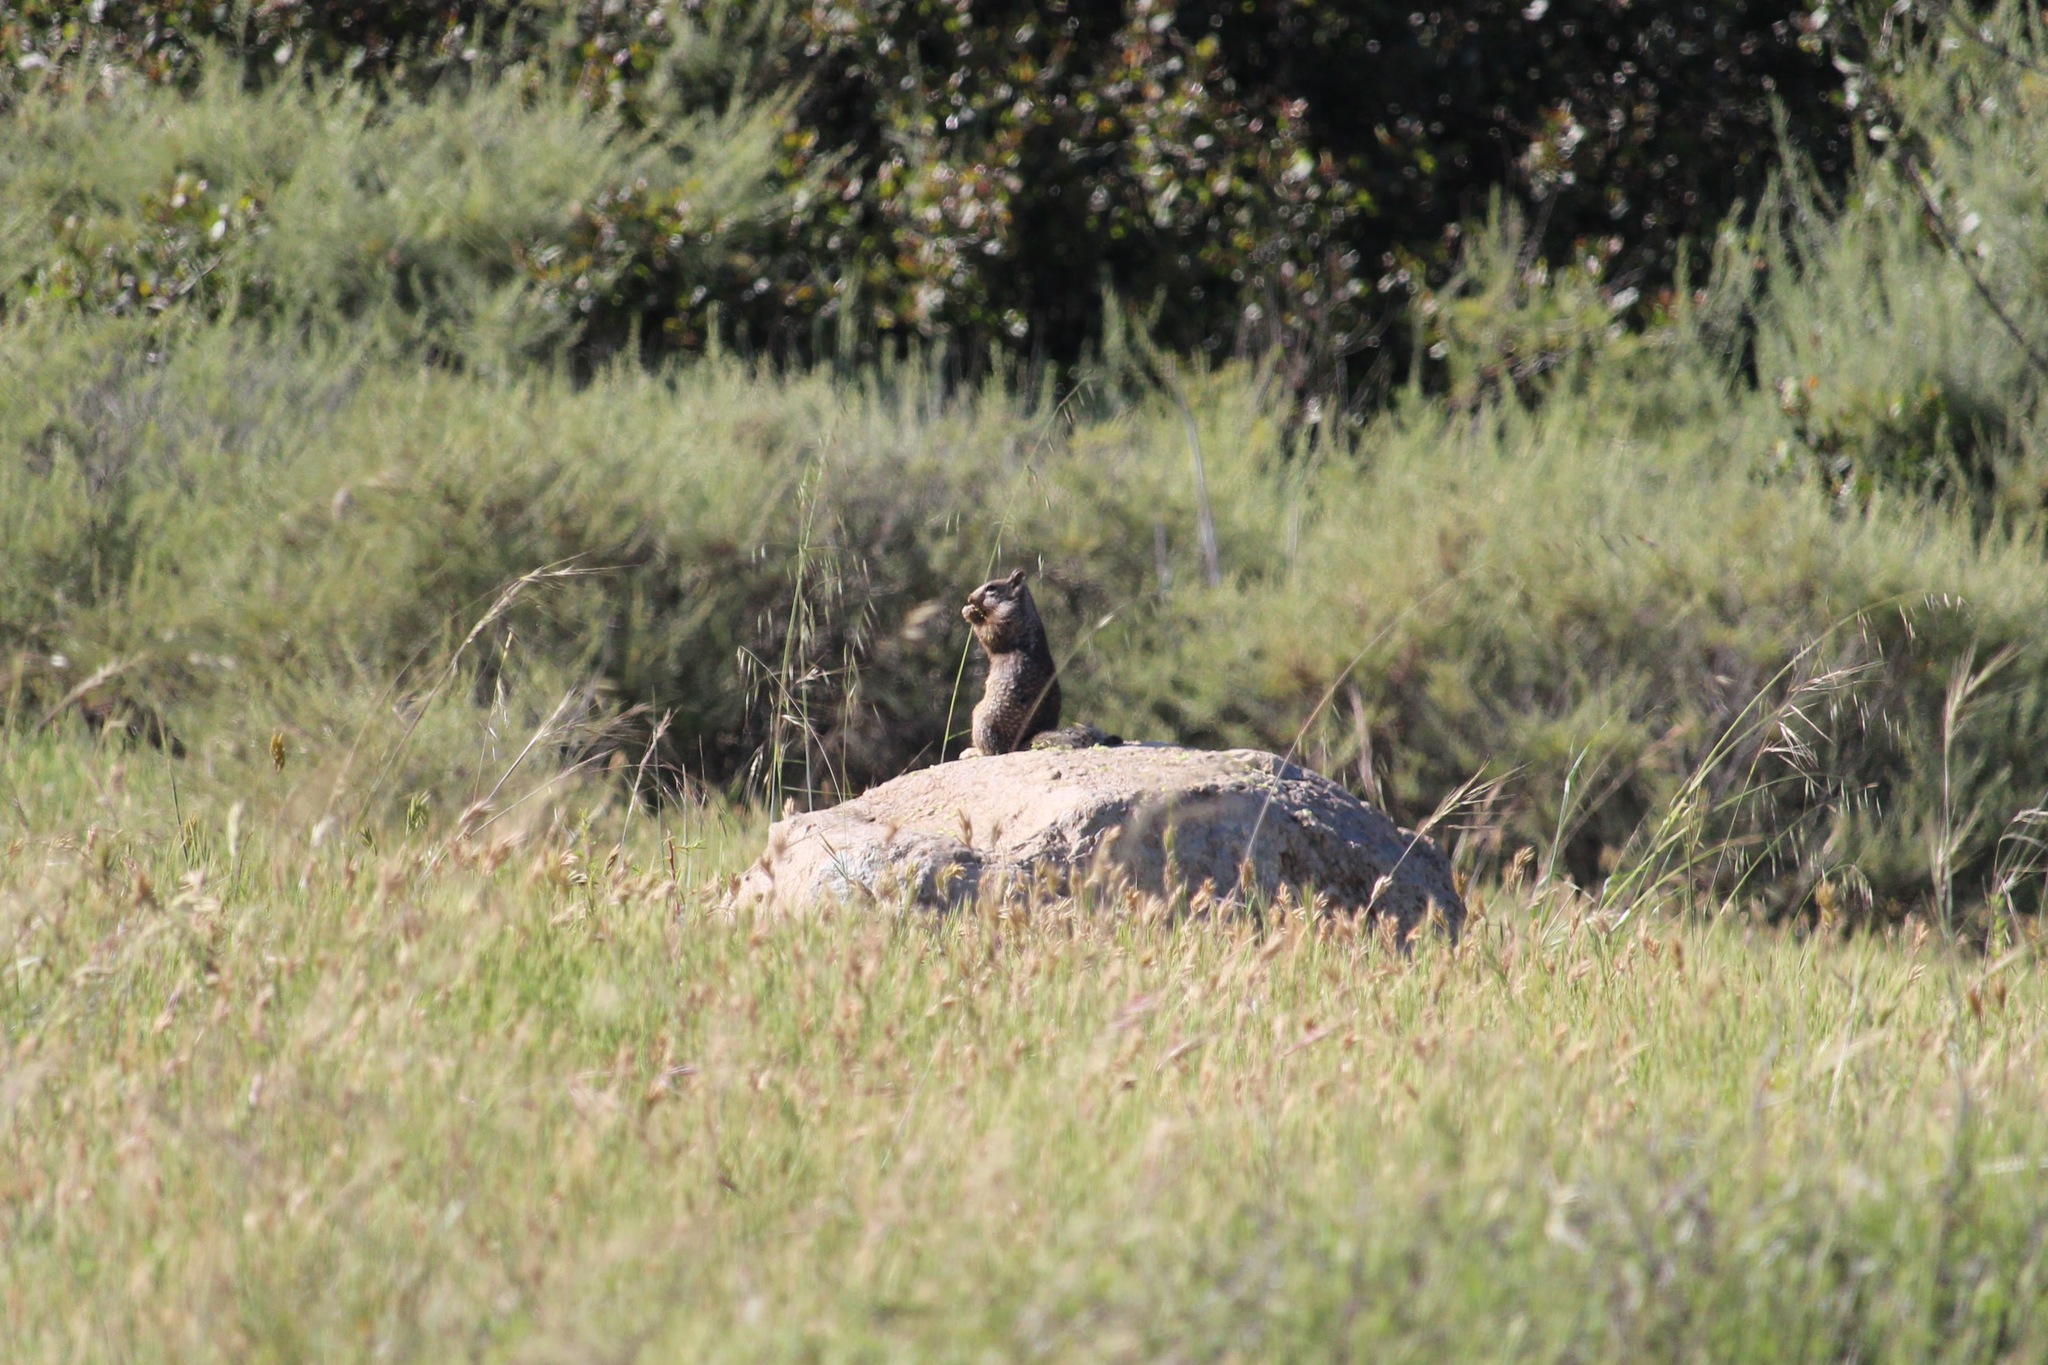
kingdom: Animalia
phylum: Chordata
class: Mammalia
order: Rodentia
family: Sciuridae
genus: Otospermophilus
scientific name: Otospermophilus beecheyi
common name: California ground squirrel
